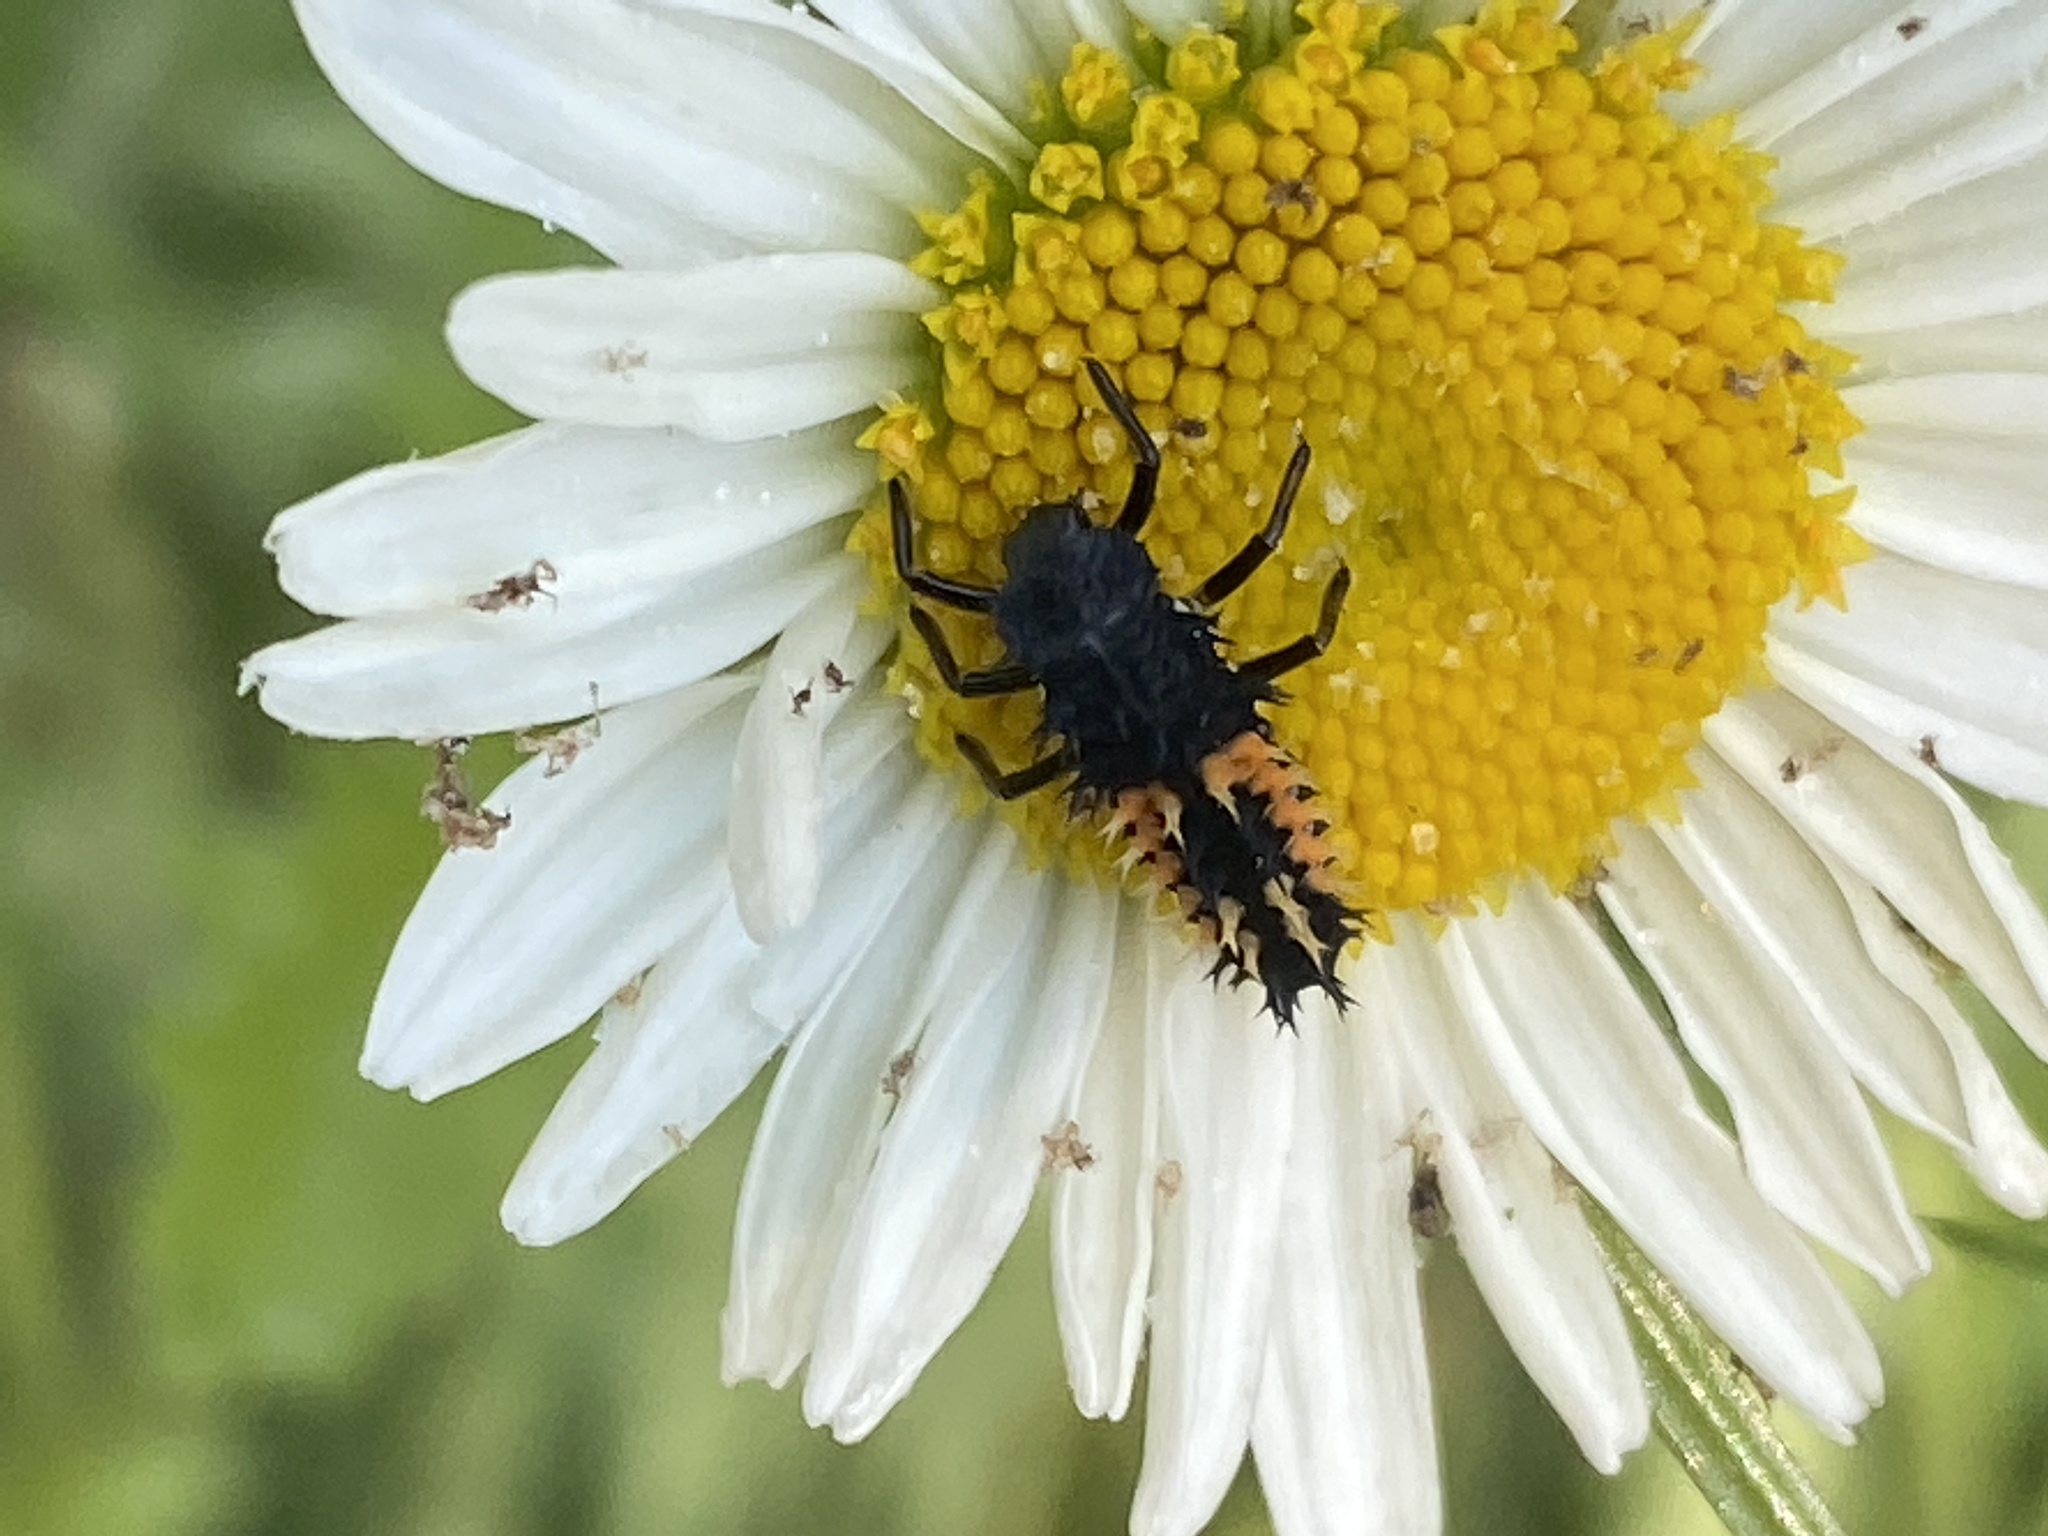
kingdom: Animalia
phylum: Arthropoda
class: Insecta
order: Coleoptera
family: Coccinellidae
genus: Harmonia
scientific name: Harmonia axyridis
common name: Harlequin ladybird
